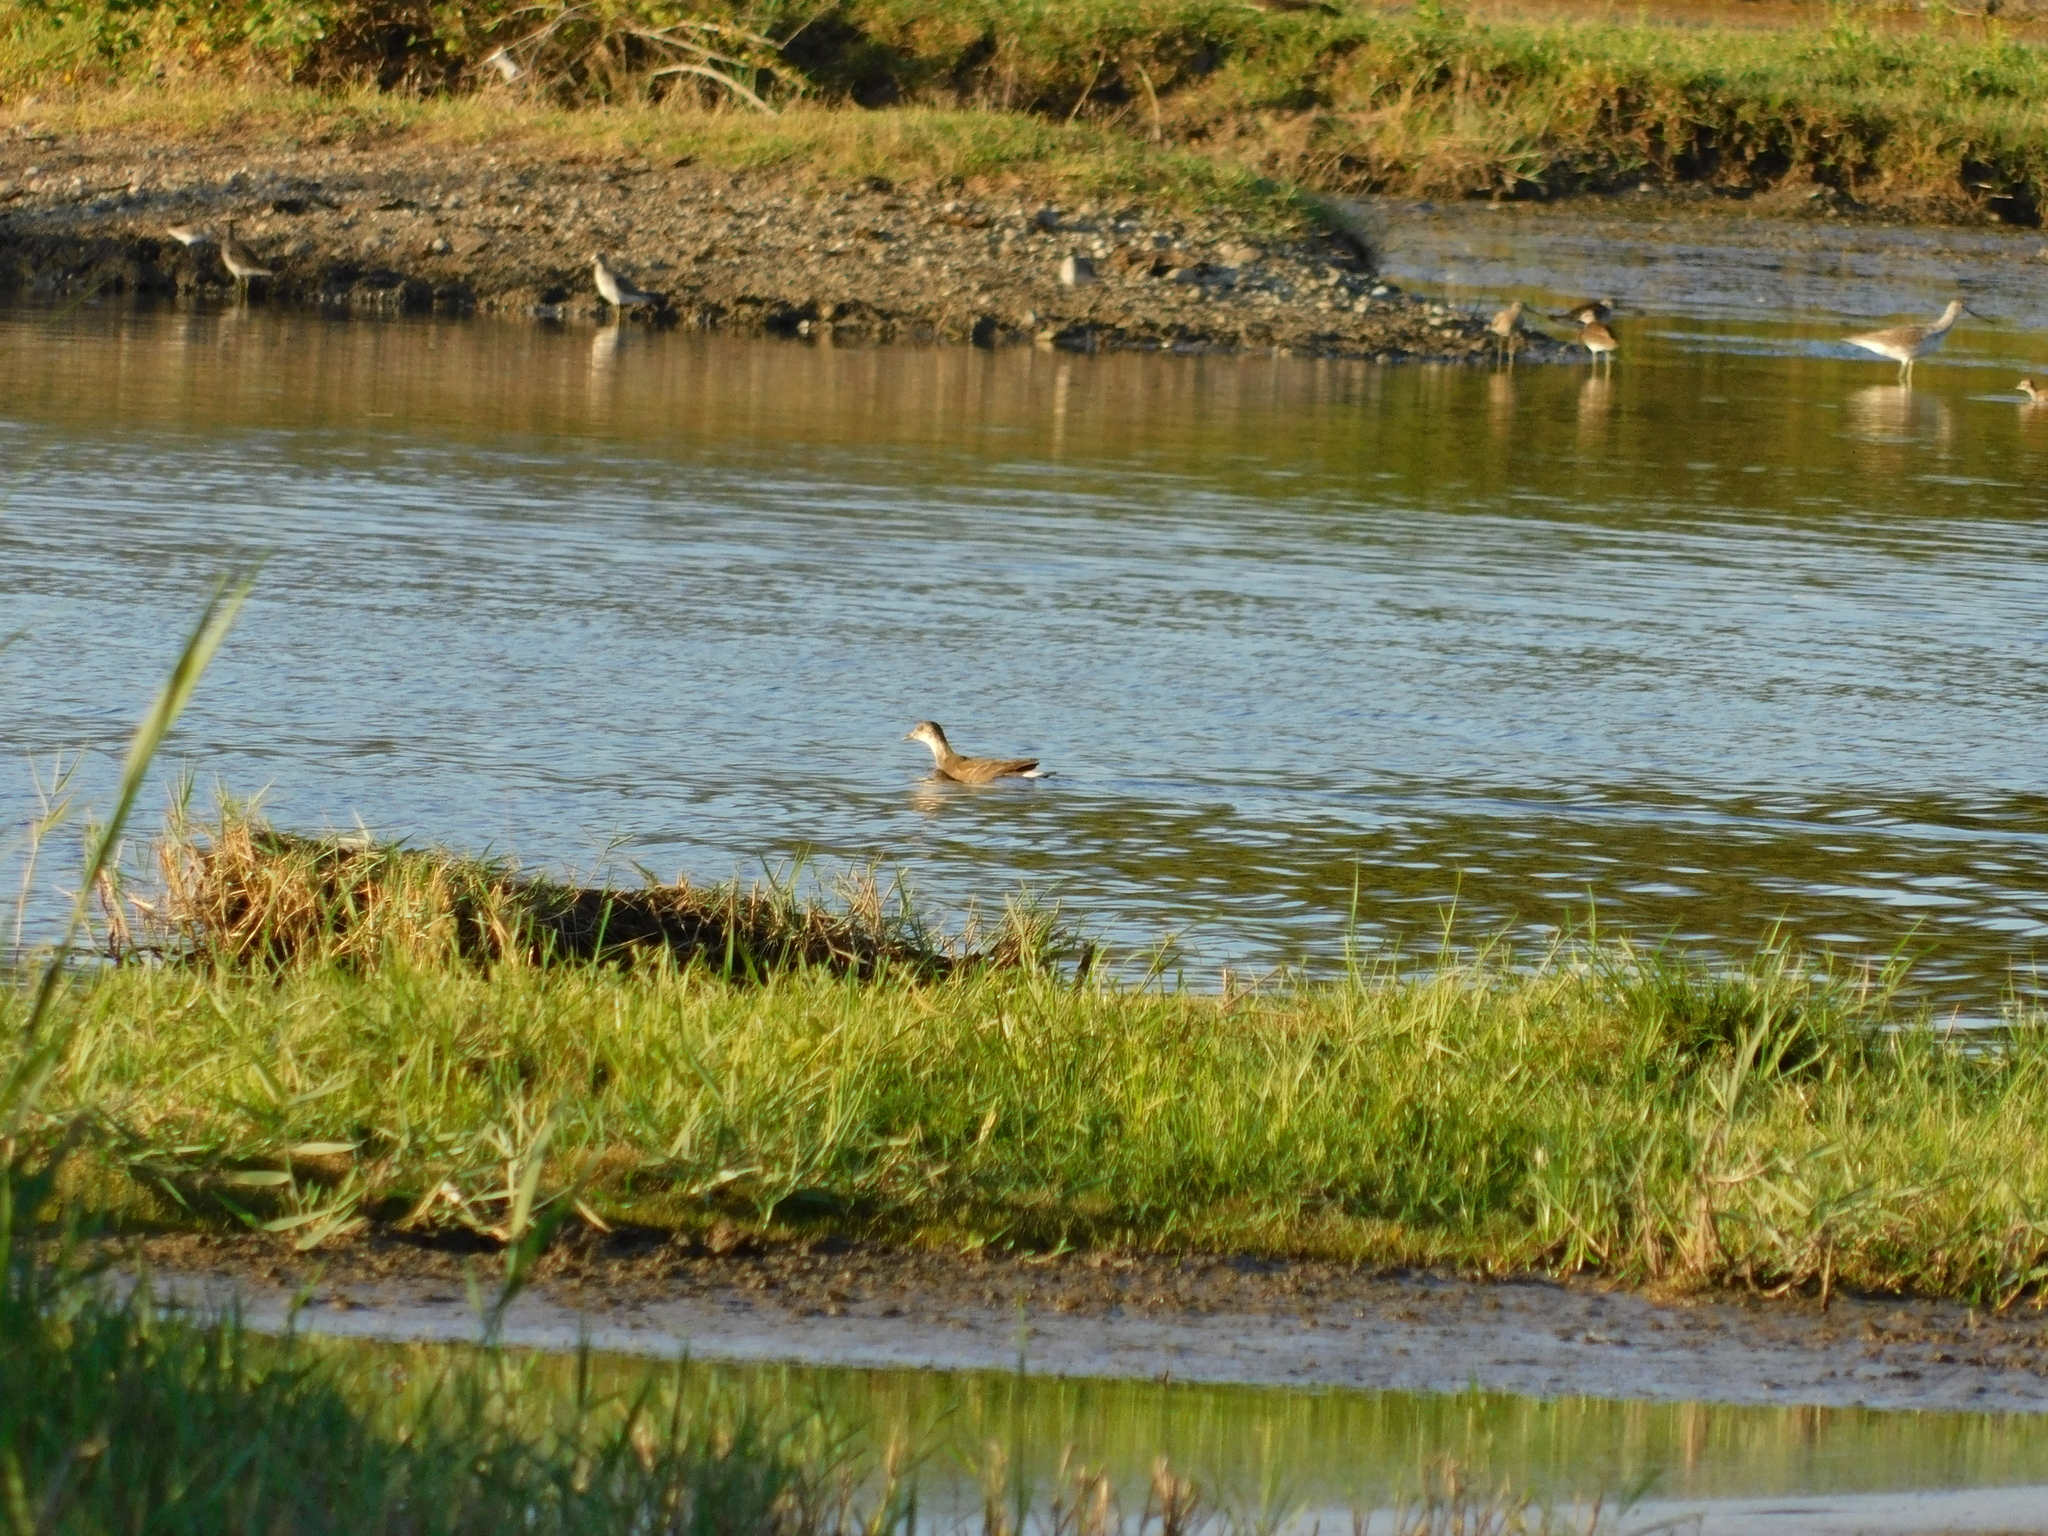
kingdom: Animalia
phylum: Chordata
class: Aves
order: Gruiformes
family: Rallidae
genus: Gallinula
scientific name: Gallinula chloropus
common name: Common moorhen
